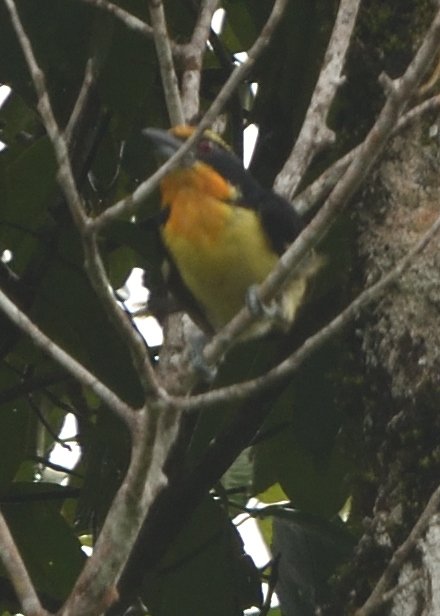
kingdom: Animalia
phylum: Chordata
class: Aves
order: Piciformes
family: Capitonidae
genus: Capito
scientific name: Capito auratus
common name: Gilded barbet
